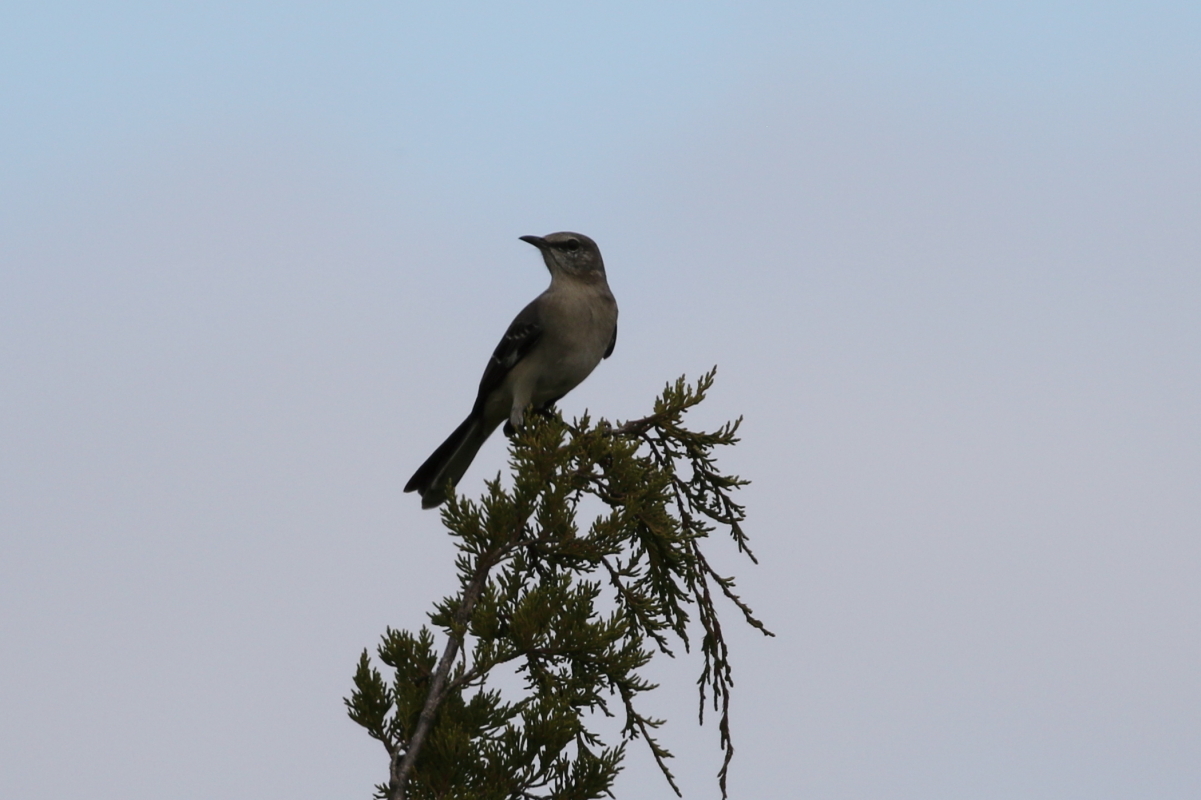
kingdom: Animalia
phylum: Chordata
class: Aves
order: Passeriformes
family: Mimidae
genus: Mimus
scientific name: Mimus polyglottos
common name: Northern mockingbird
